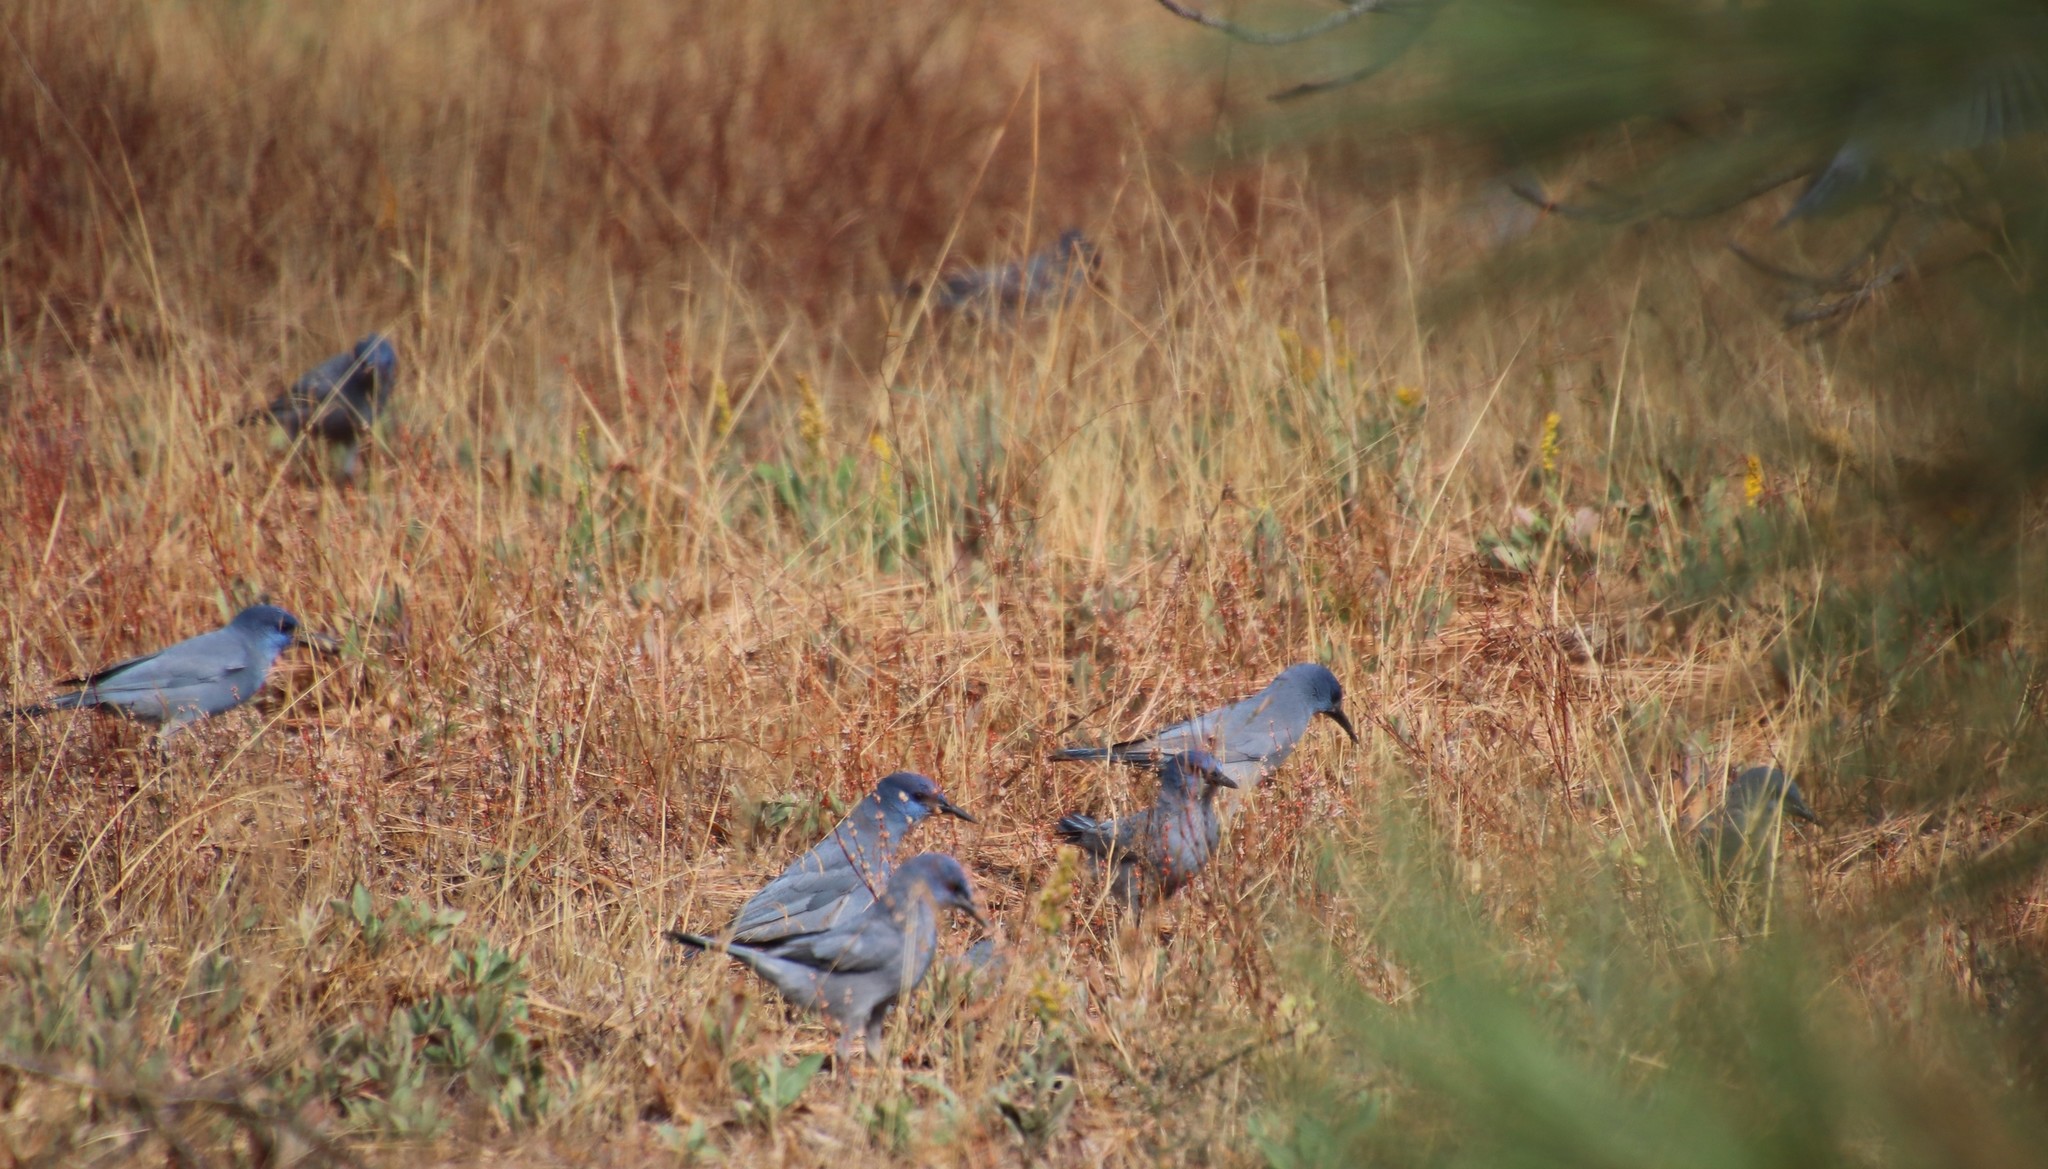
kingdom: Animalia
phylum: Chordata
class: Aves
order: Passeriformes
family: Corvidae
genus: Gymnorhinus
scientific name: Gymnorhinus cyanocephalus
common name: Pinyon jay
